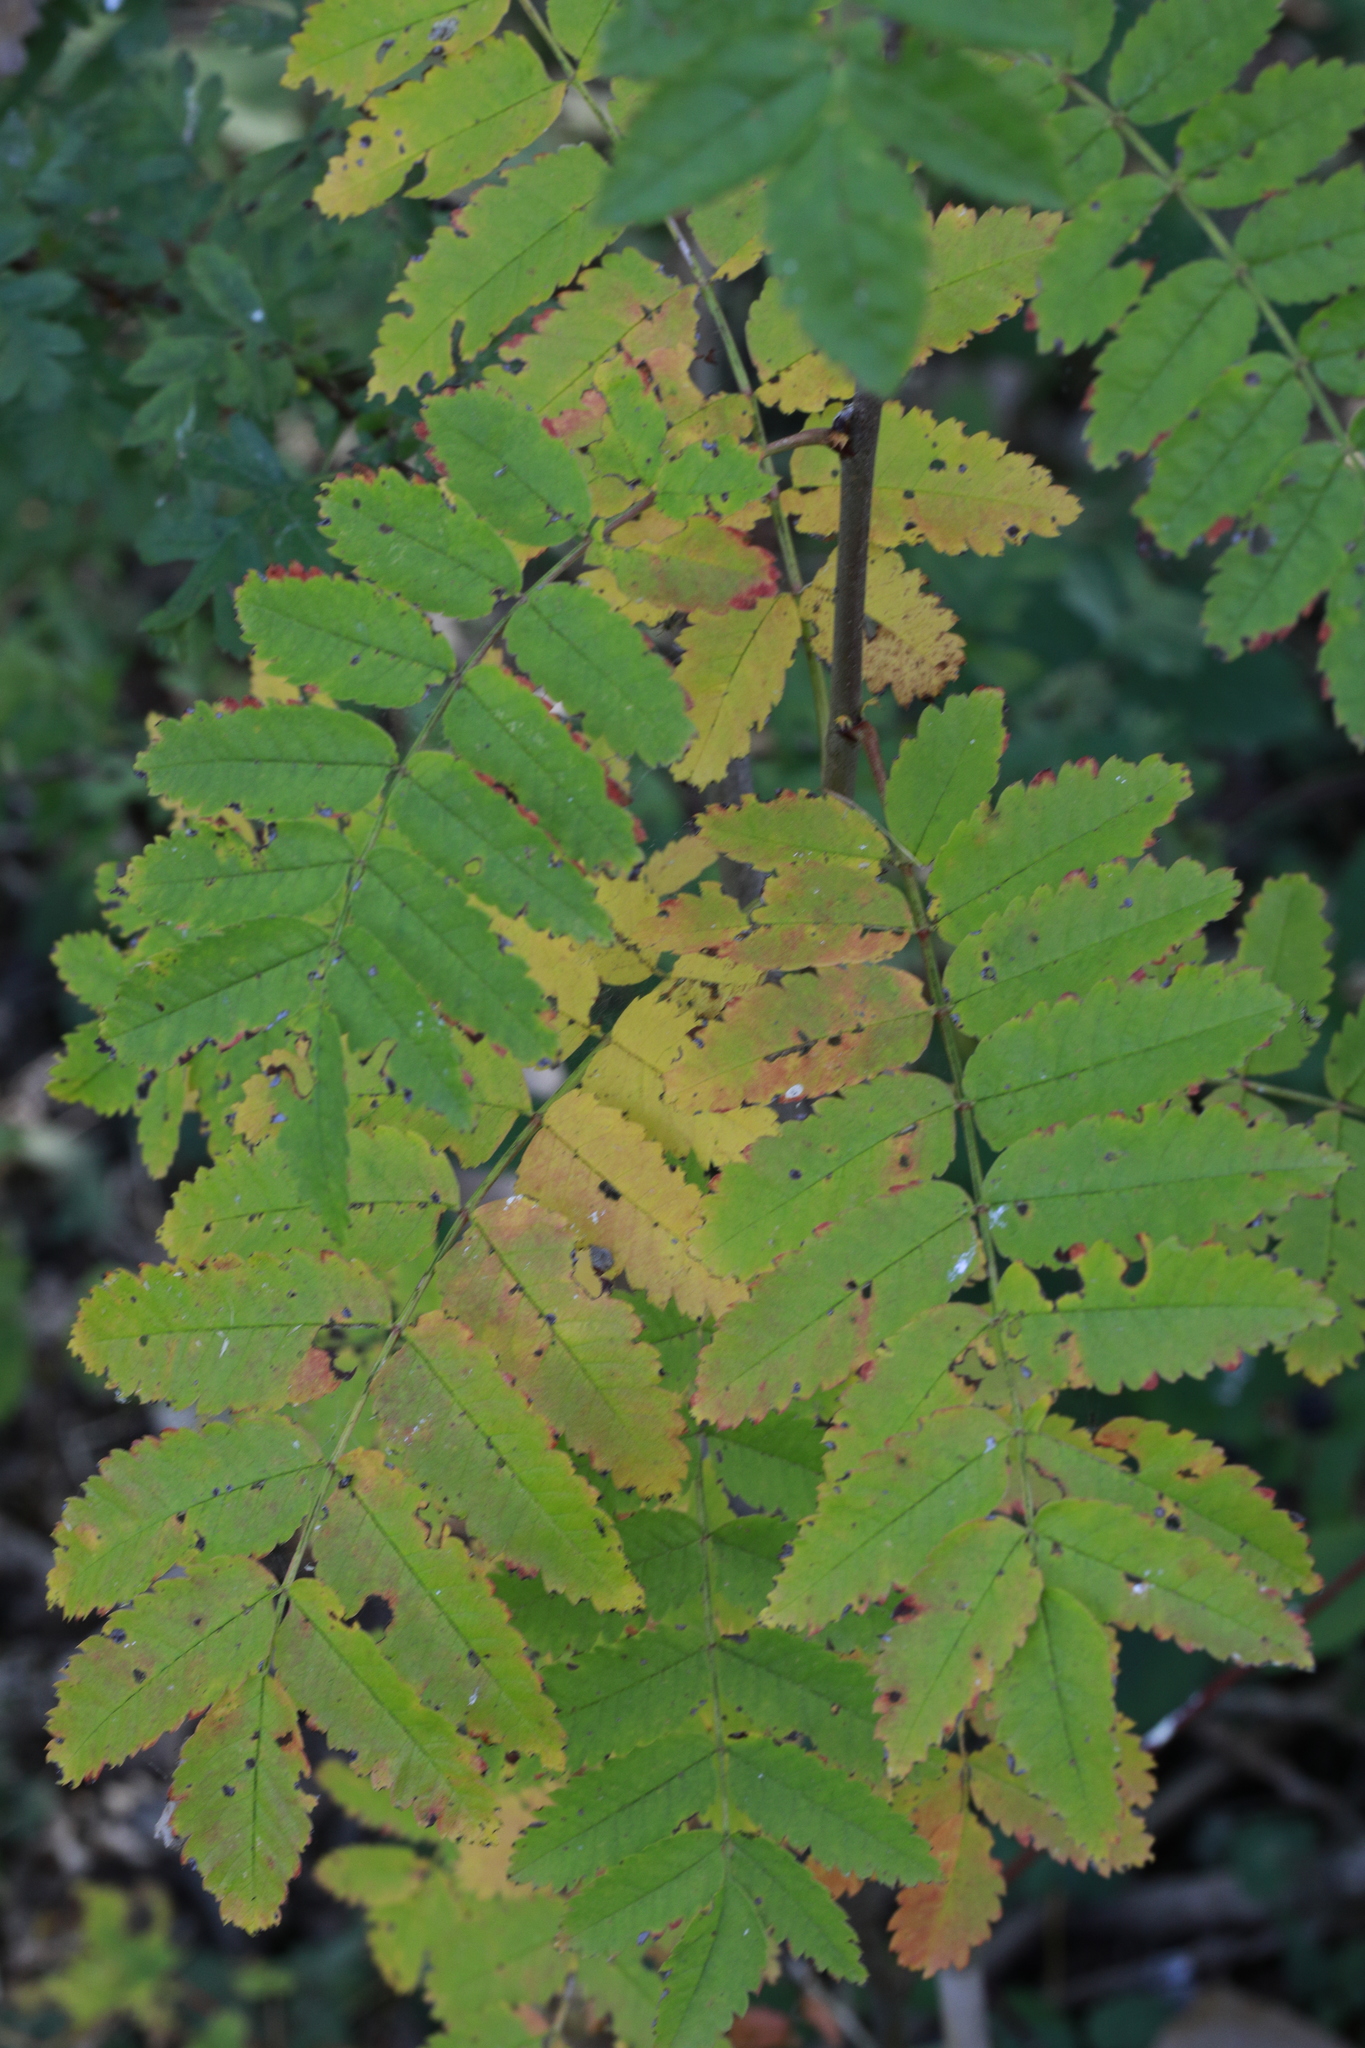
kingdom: Plantae
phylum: Tracheophyta
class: Magnoliopsida
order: Rosales
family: Rosaceae
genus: Sorbus
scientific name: Sorbus aucuparia
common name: Rowan
